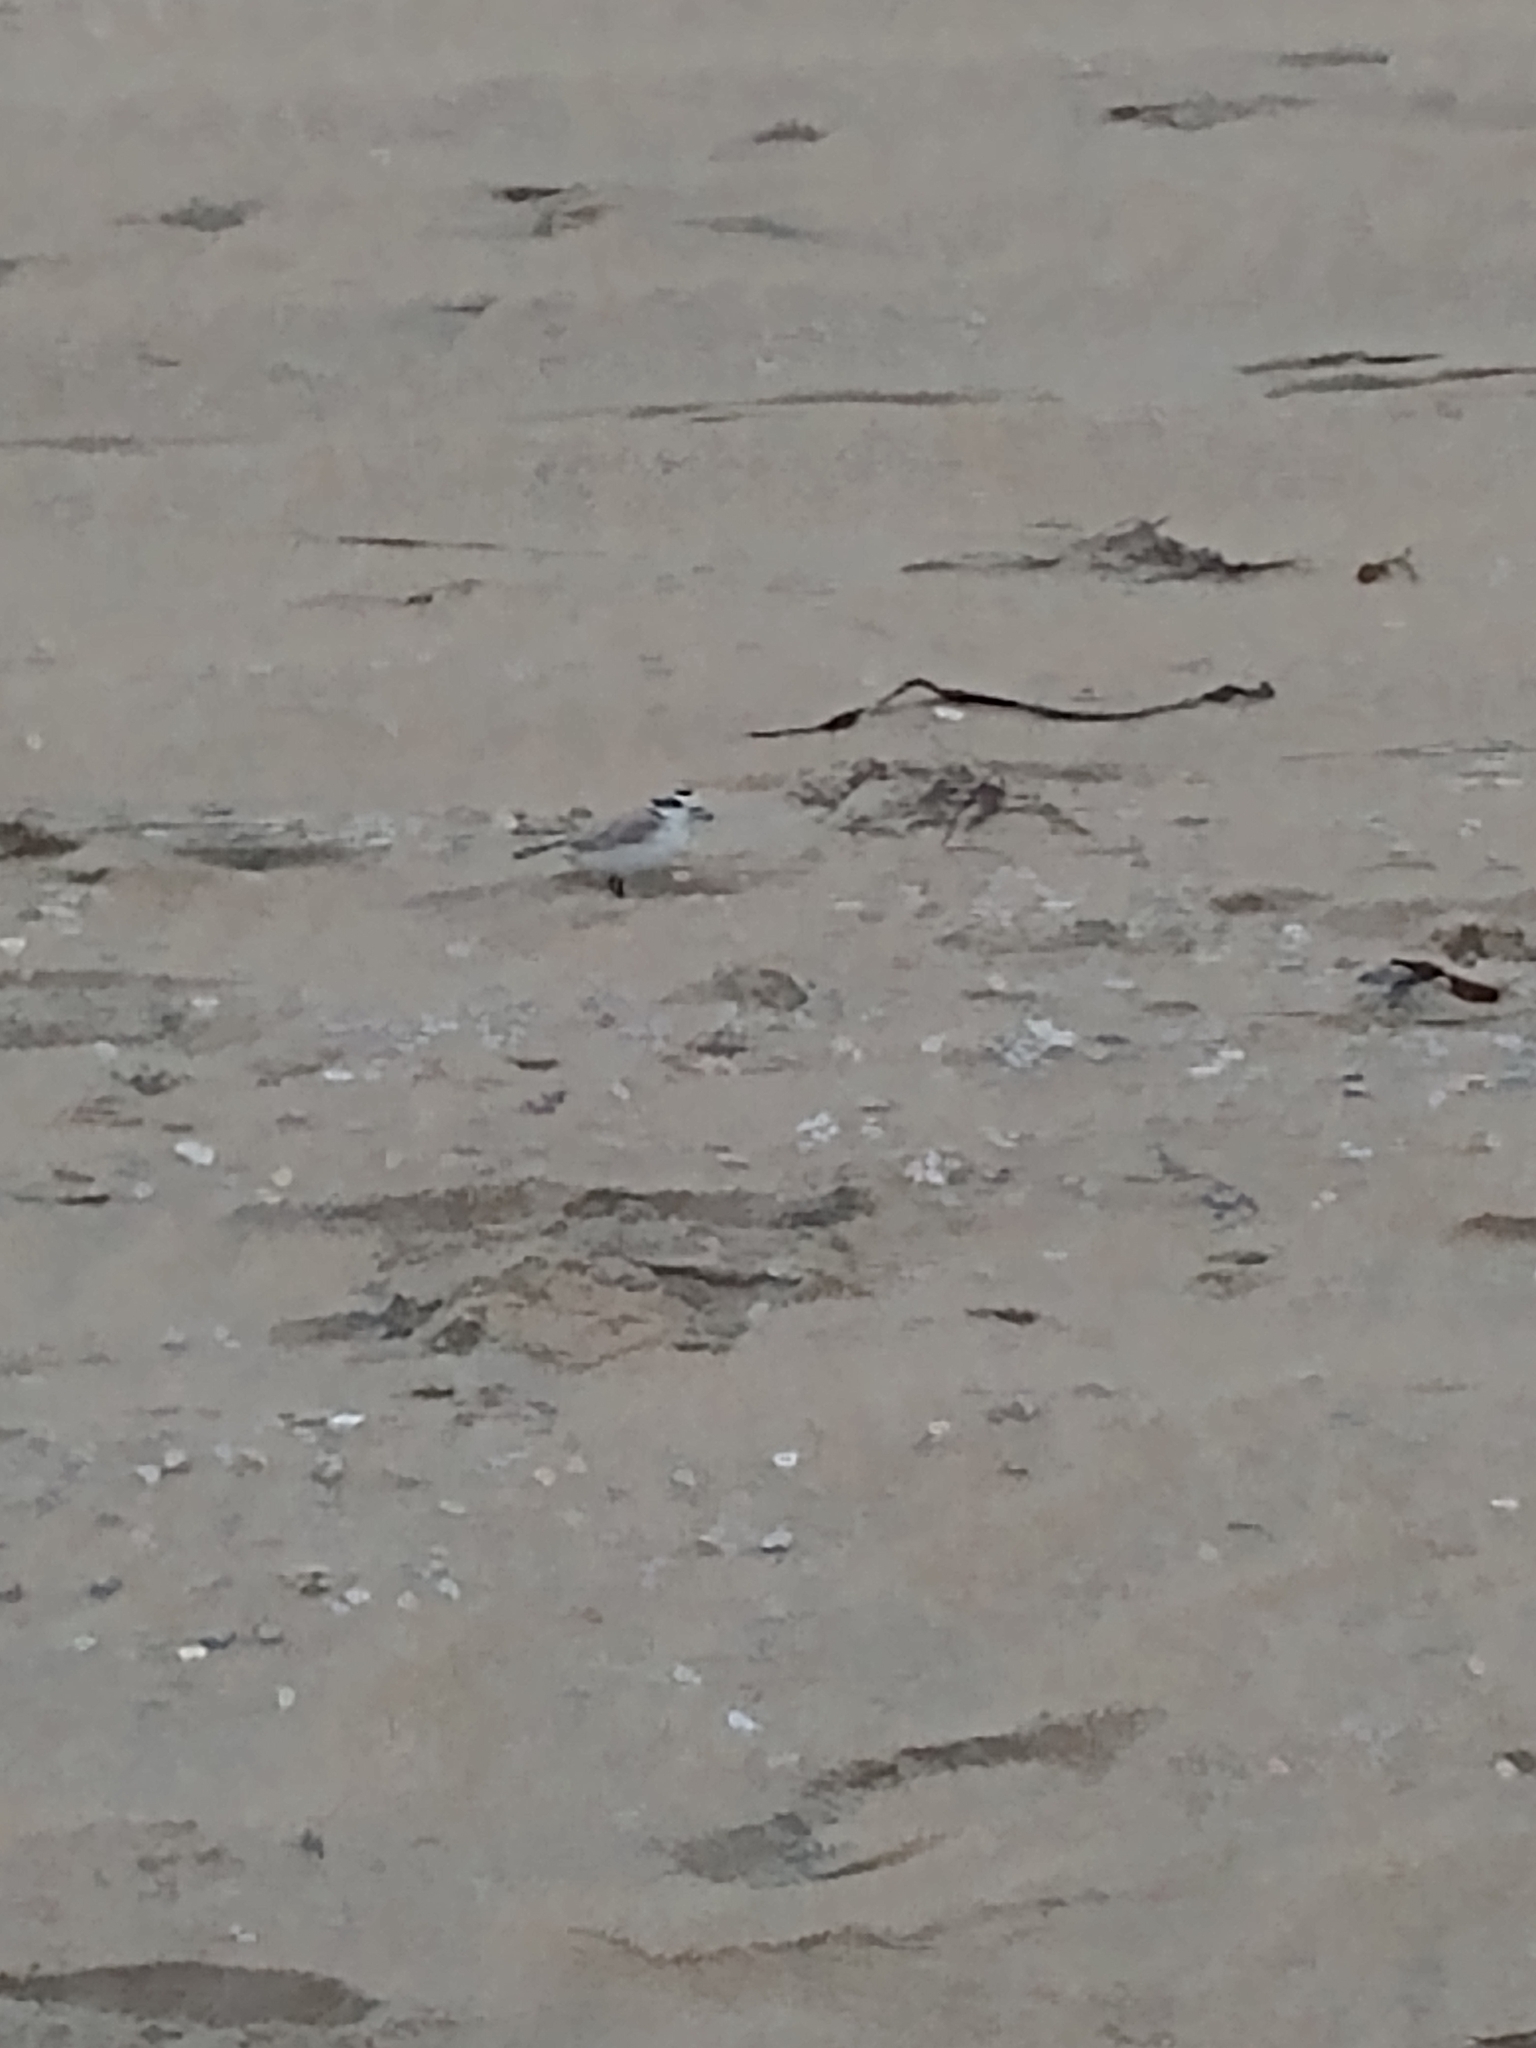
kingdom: Animalia
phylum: Chordata
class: Aves
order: Charadriiformes
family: Charadriidae
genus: Anarhynchus
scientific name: Anarhynchus
